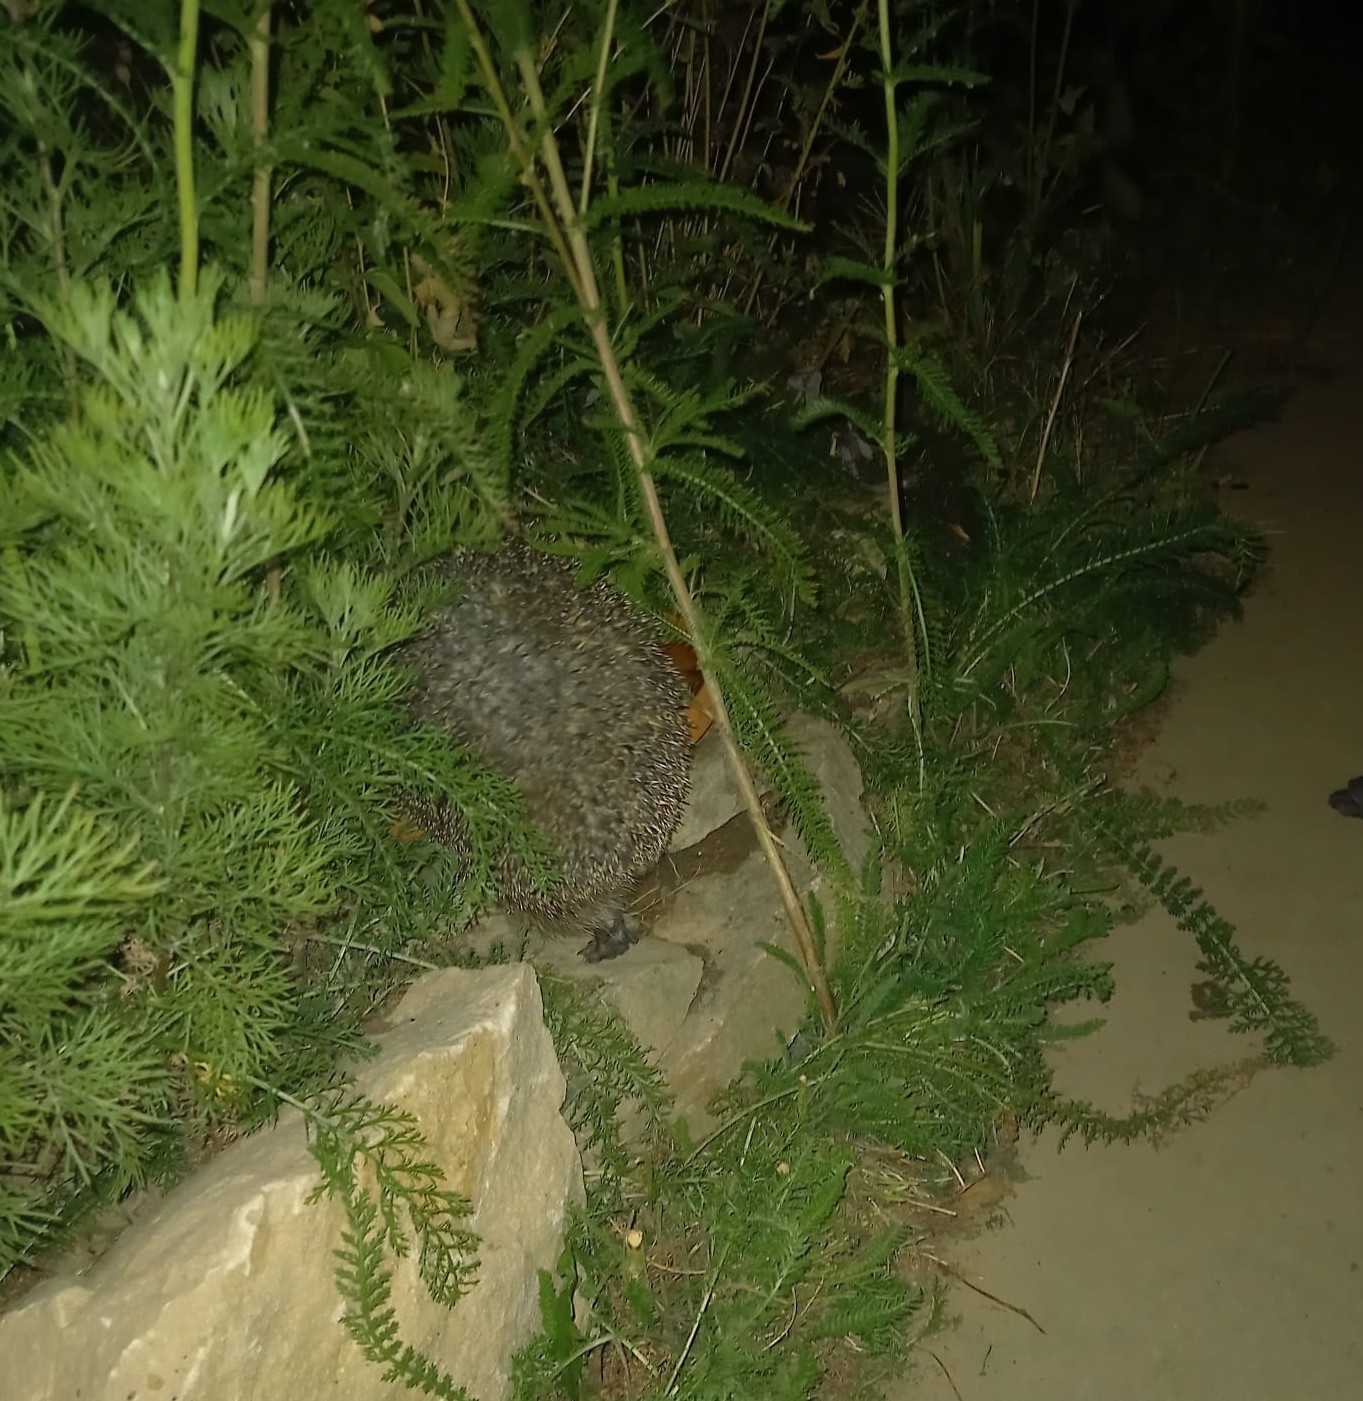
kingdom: Animalia
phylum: Chordata
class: Mammalia
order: Erinaceomorpha
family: Erinaceidae
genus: Erinaceus
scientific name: Erinaceus europaeus
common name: West european hedgehog
